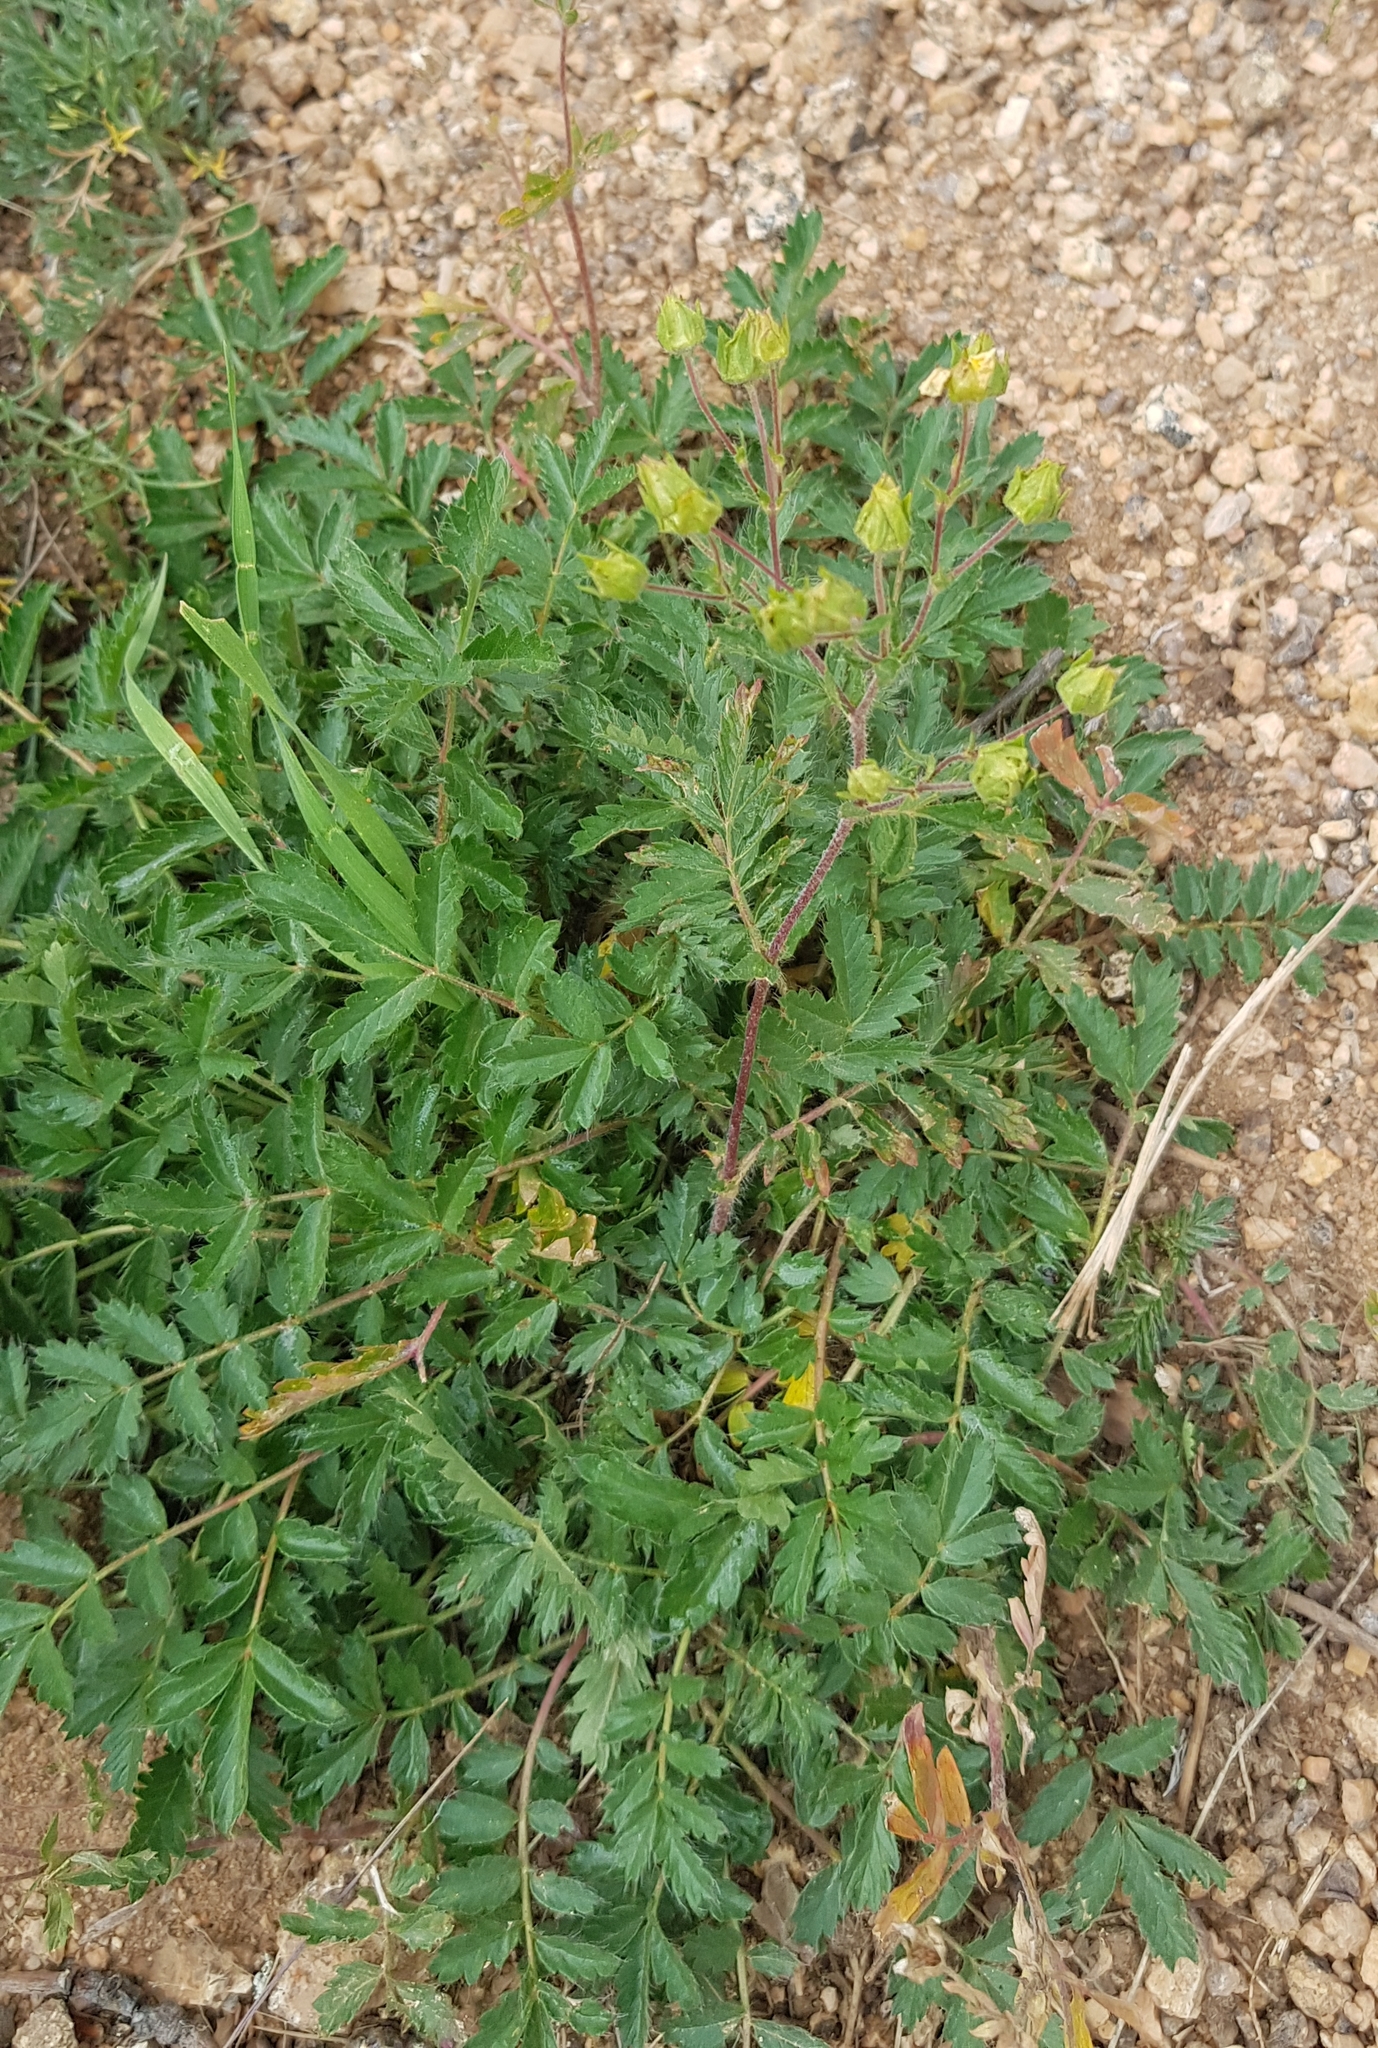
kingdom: Plantae
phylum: Tracheophyta
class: Magnoliopsida
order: Rosales
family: Rosaceae
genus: Potentilla
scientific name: Potentilla supina
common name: Prostrate cinquefoil
